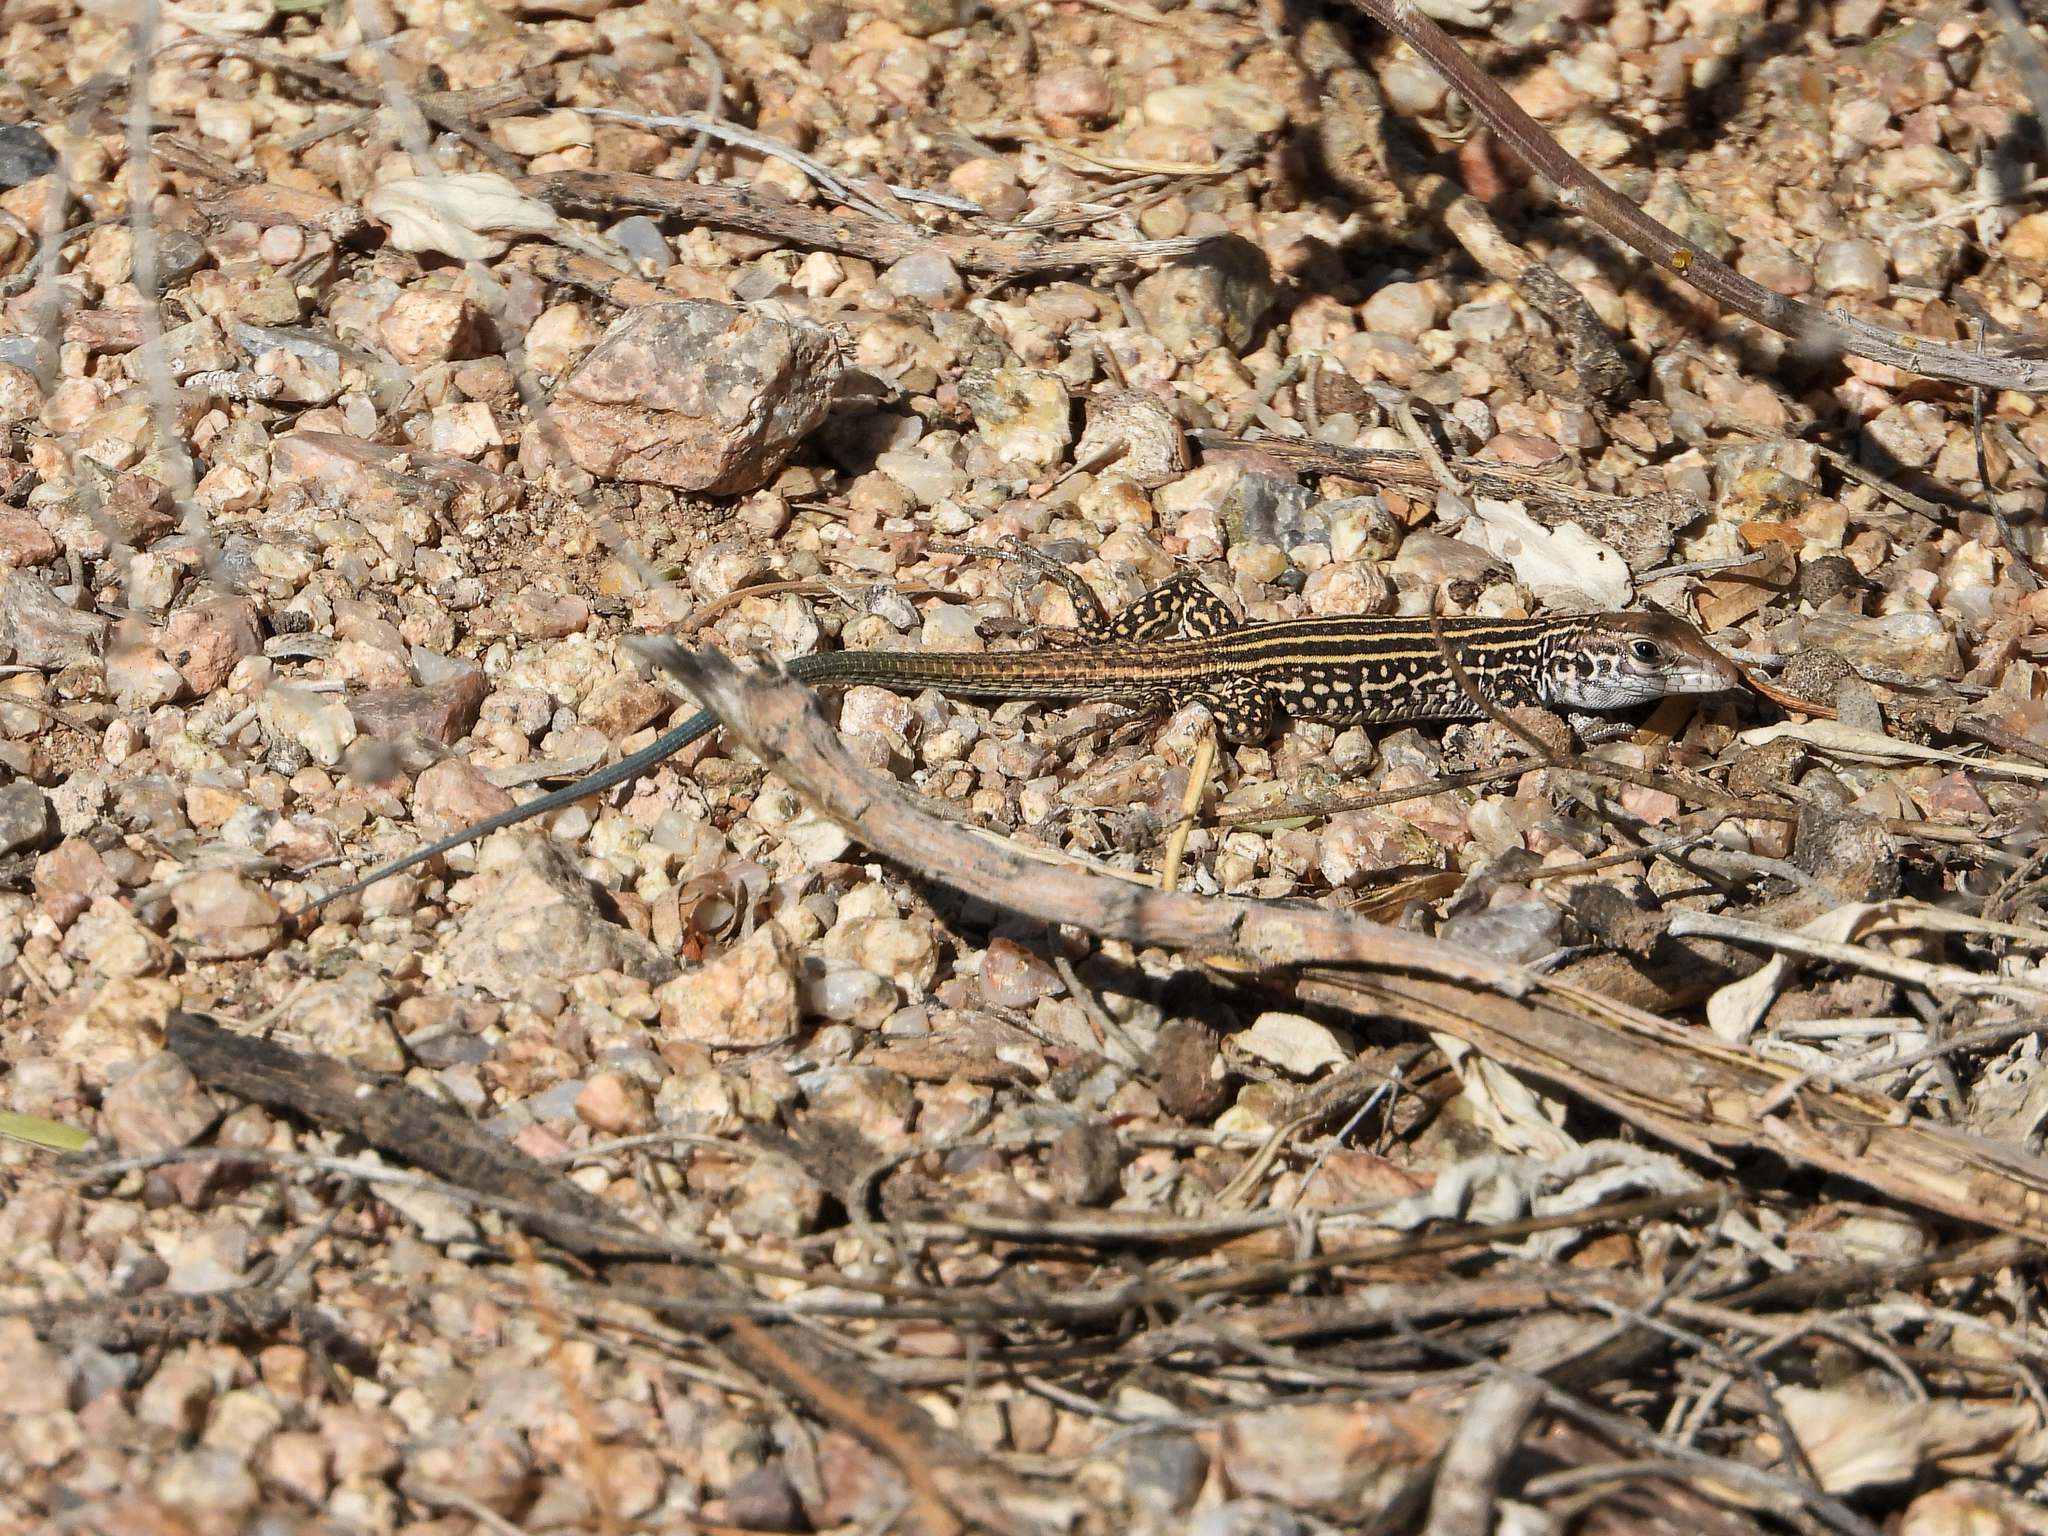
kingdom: Animalia
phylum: Chordata
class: Squamata
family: Teiidae
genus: Aspidoscelis
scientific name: Aspidoscelis tigris
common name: Tiger whiptail
